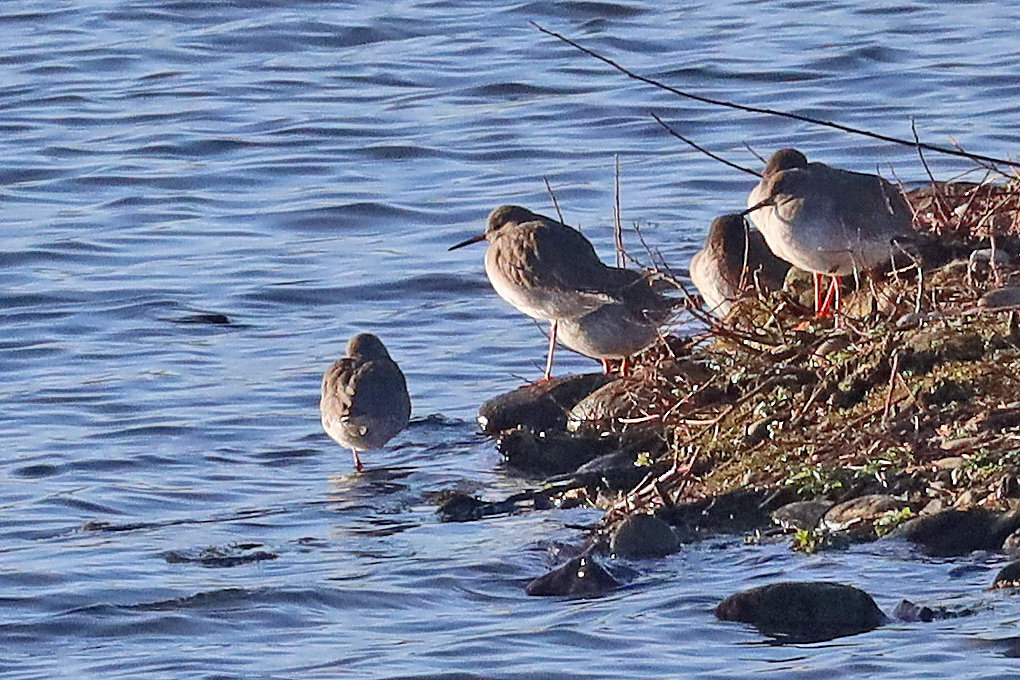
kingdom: Animalia
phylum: Chordata
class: Aves
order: Charadriiformes
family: Scolopacidae
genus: Tringa
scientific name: Tringa totanus
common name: Common redshank
